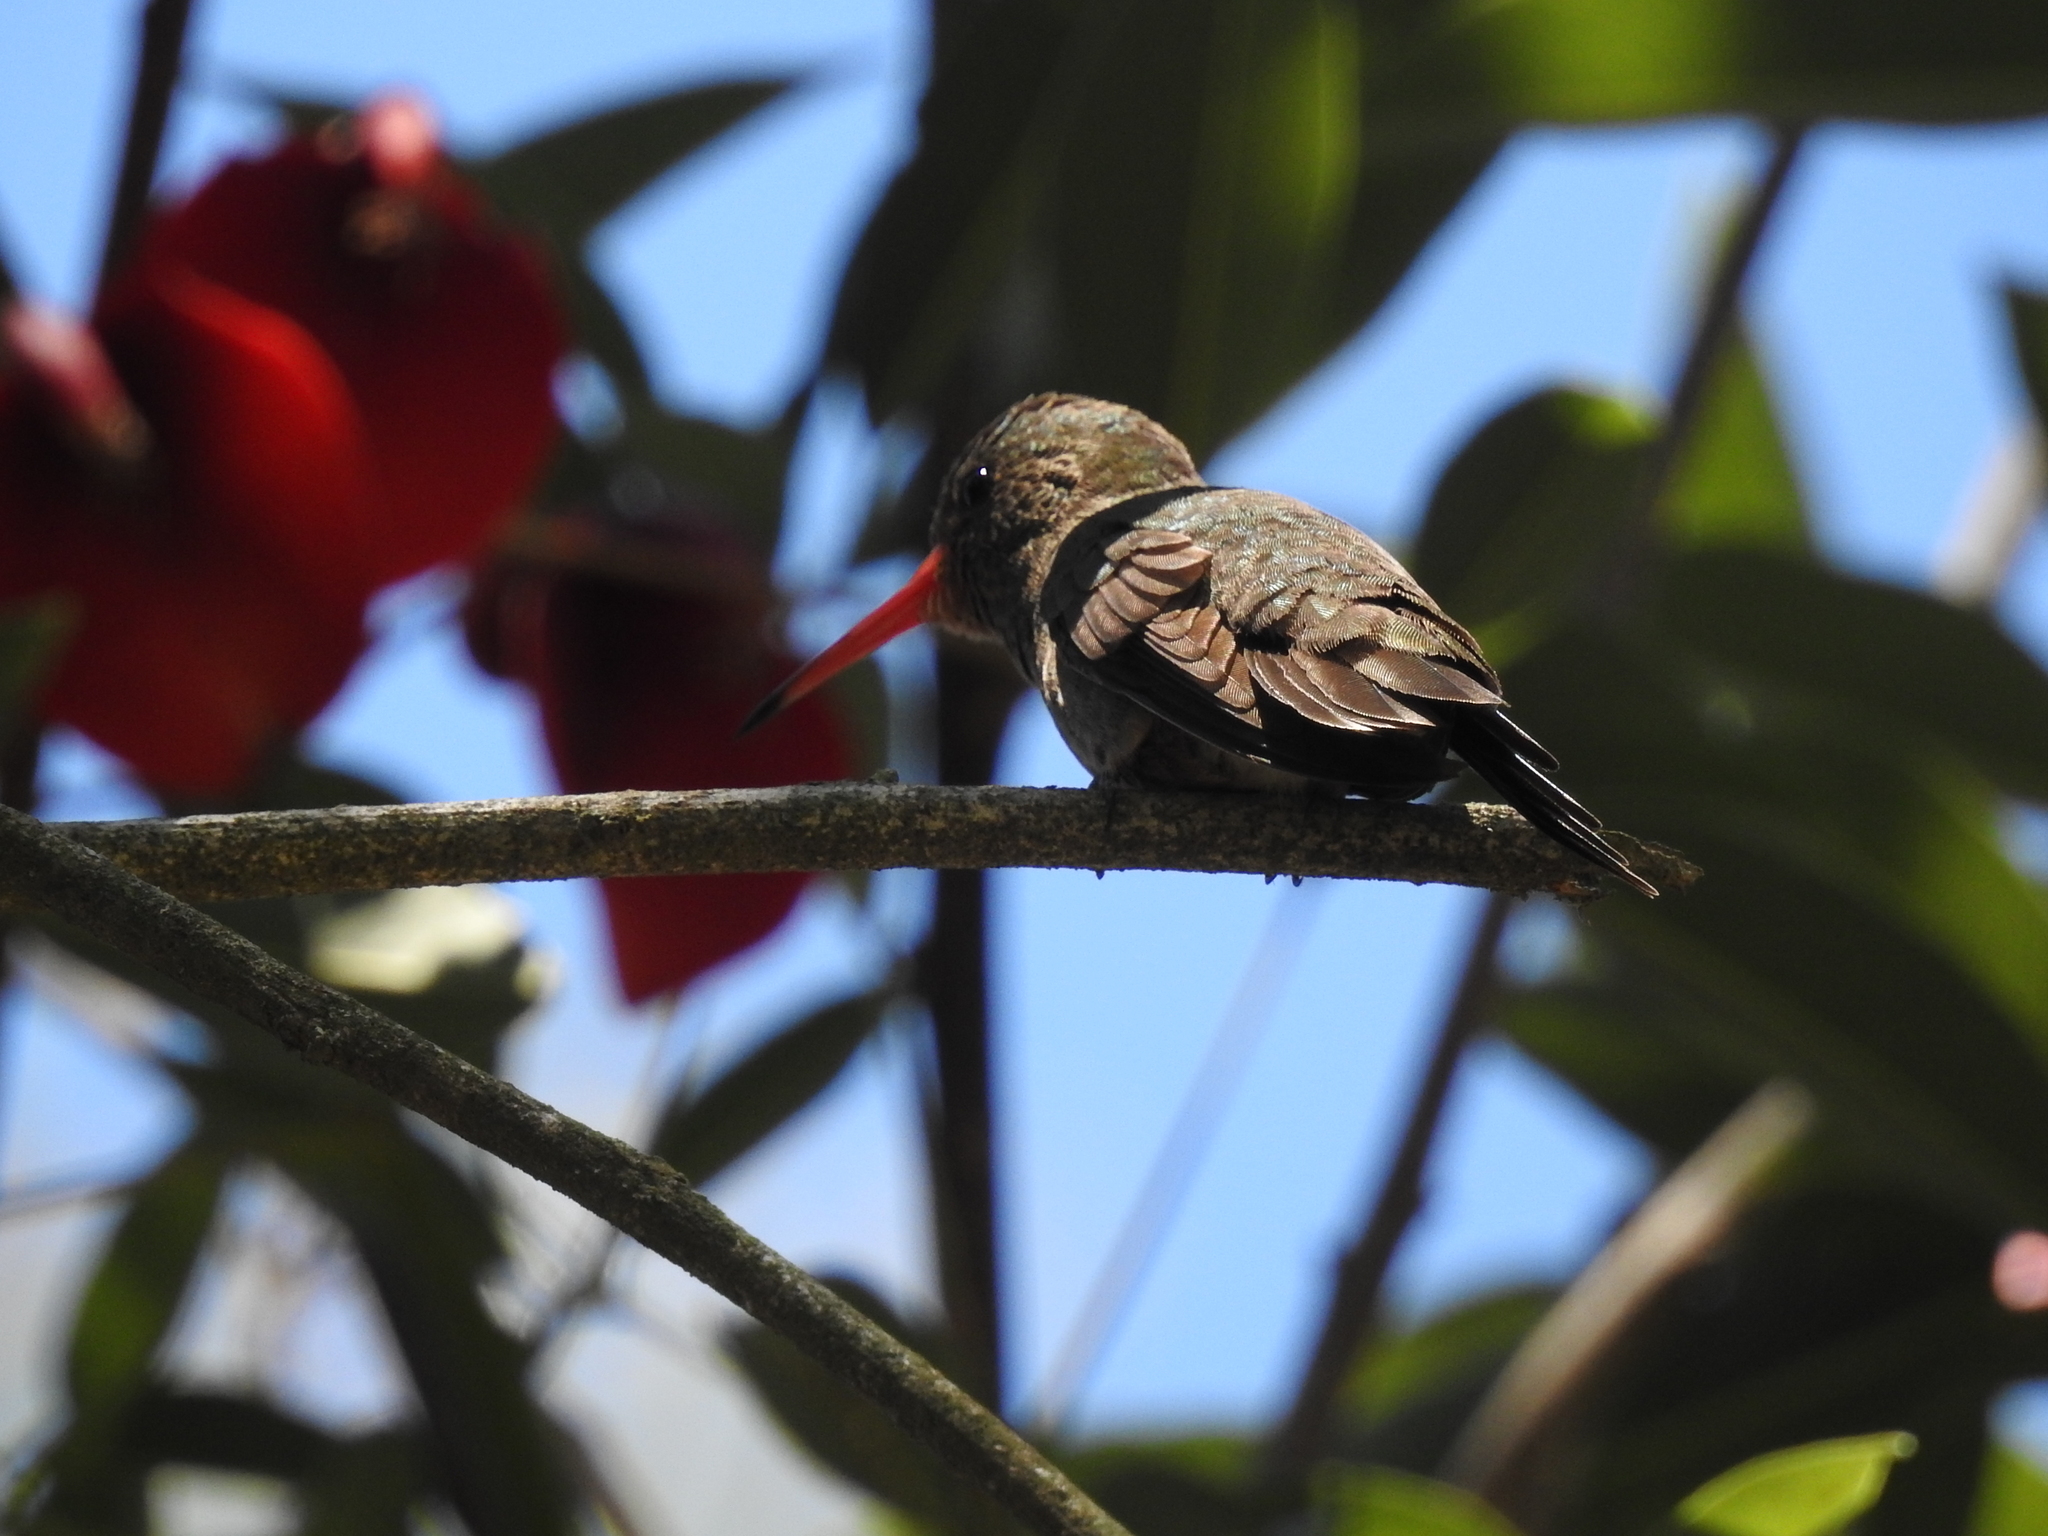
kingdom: Animalia
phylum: Chordata
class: Aves
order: Apodiformes
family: Trochilidae
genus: Hylocharis
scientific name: Hylocharis chrysura
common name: Gilded sapphire
